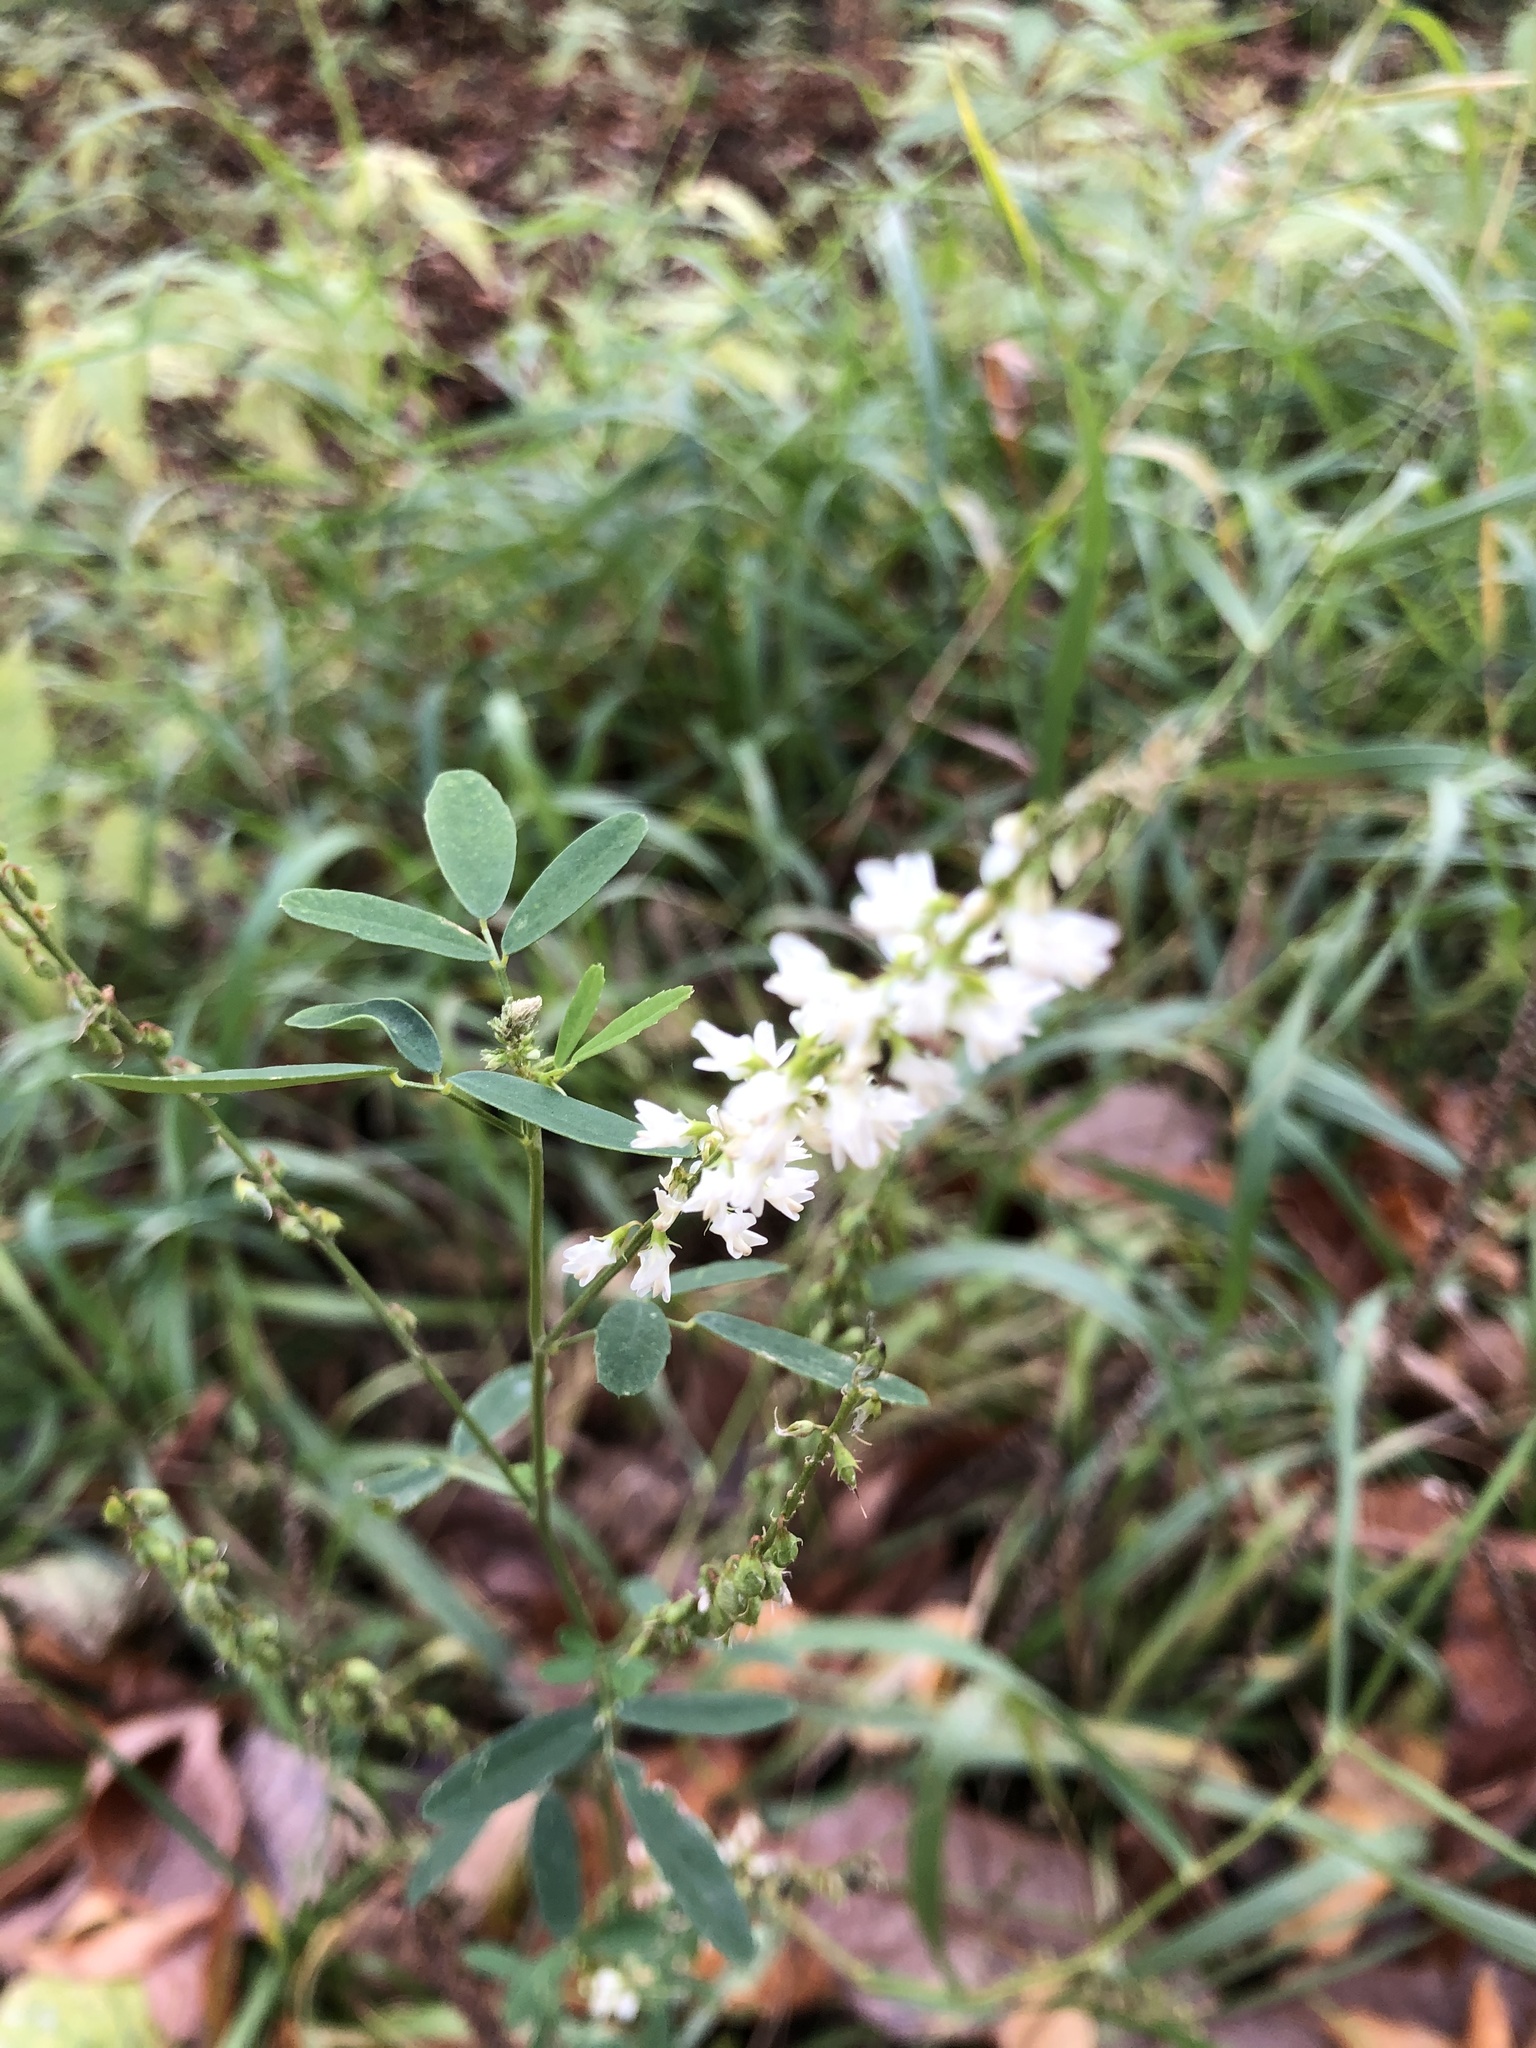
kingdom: Plantae
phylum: Tracheophyta
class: Magnoliopsida
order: Fabales
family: Fabaceae
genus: Melilotus
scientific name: Melilotus albus
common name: White melilot
